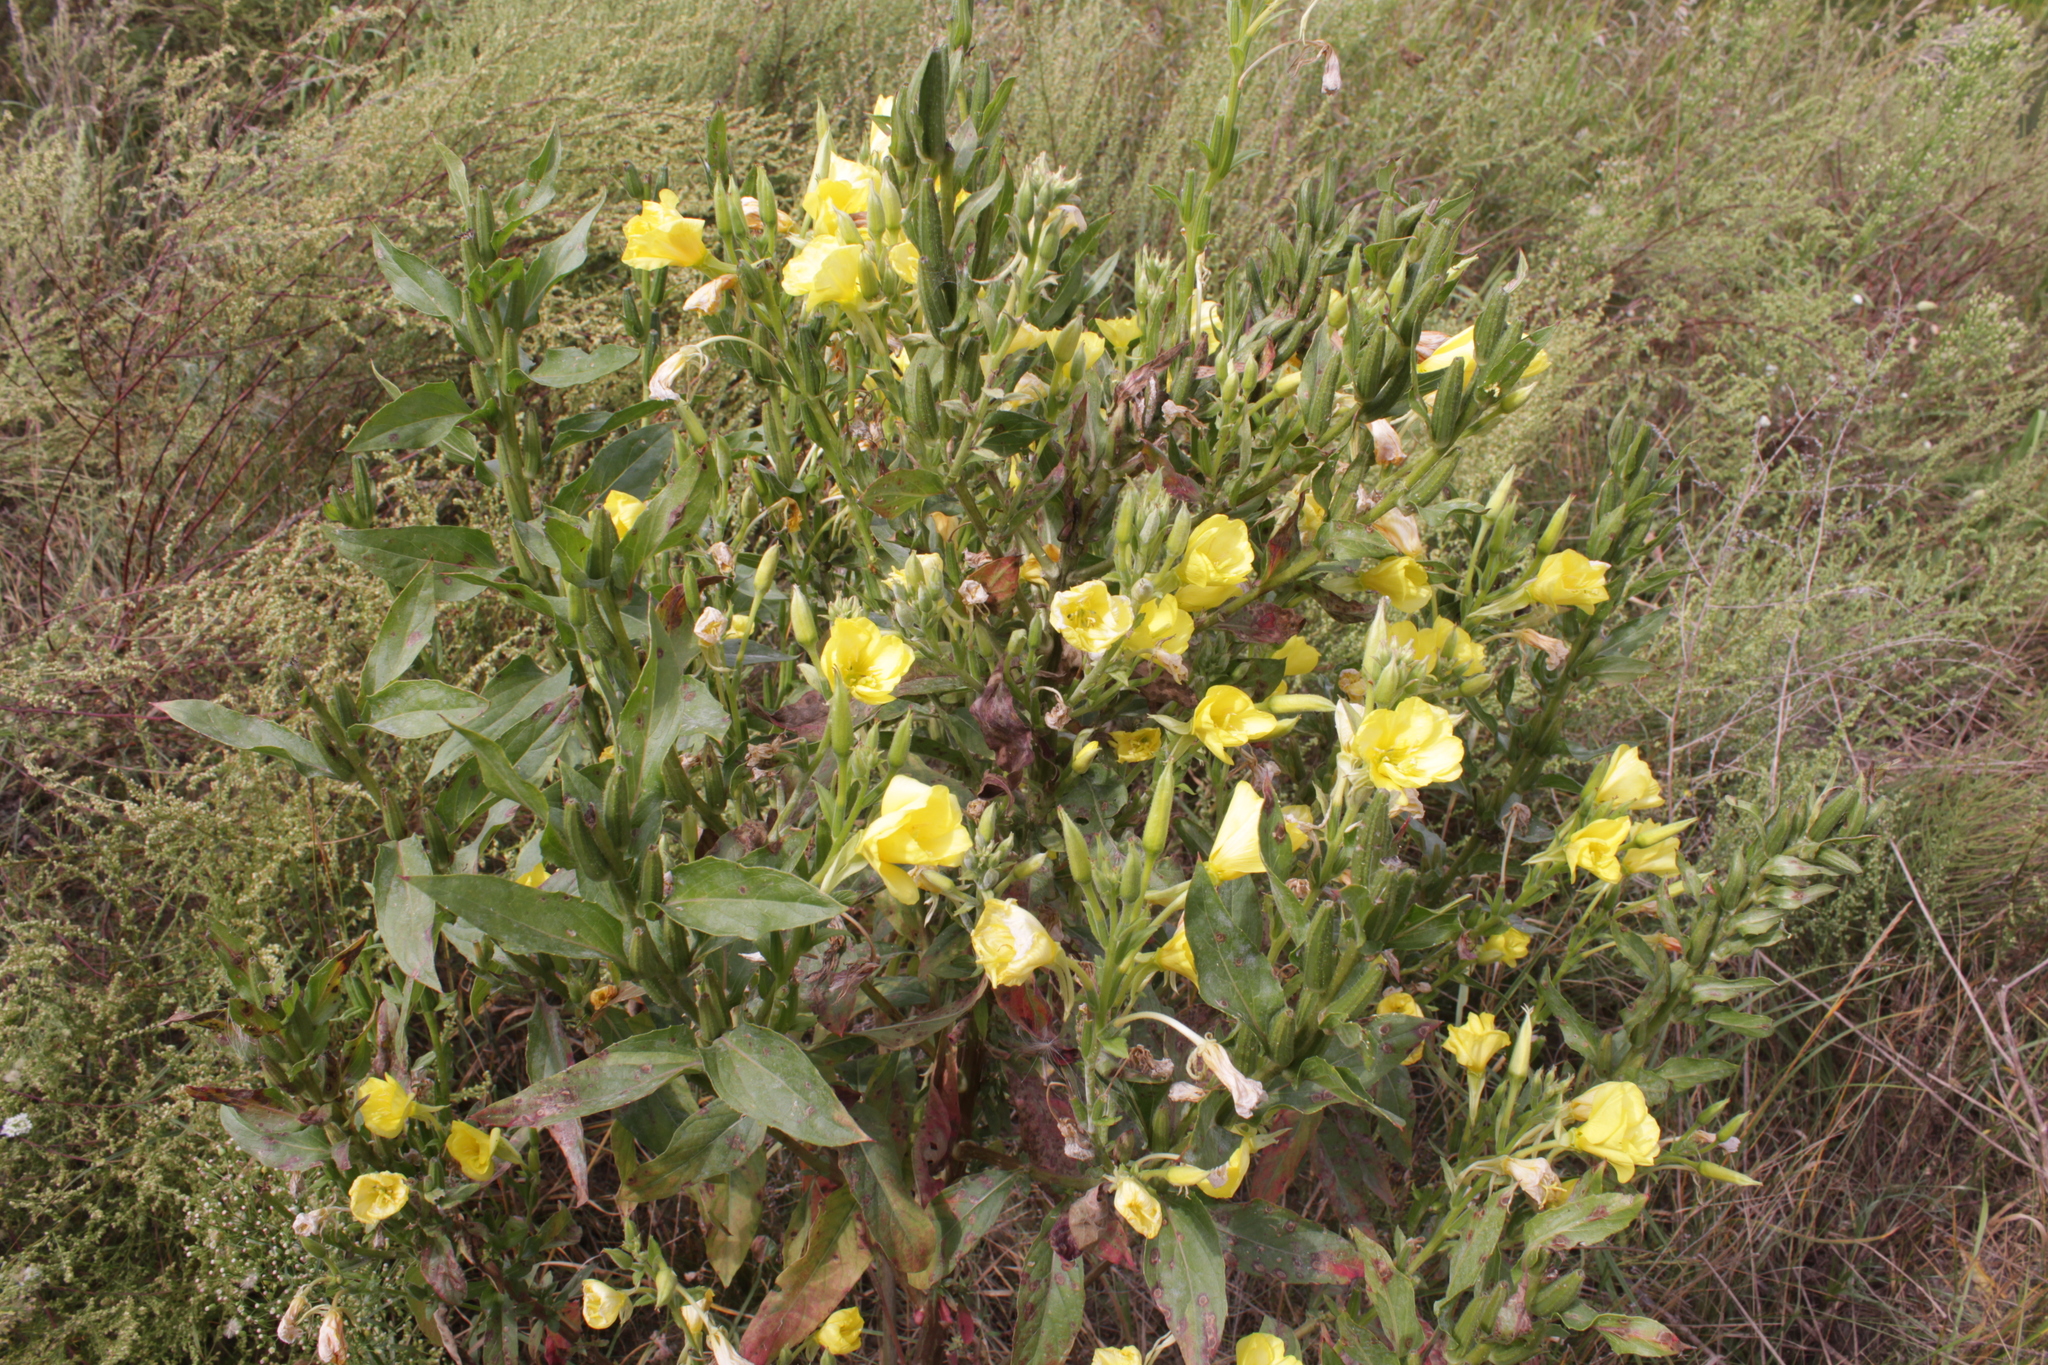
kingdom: Plantae
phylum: Tracheophyta
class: Magnoliopsida
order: Myrtales
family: Onagraceae
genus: Oenothera
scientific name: Oenothera biennis
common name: Common evening-primrose
